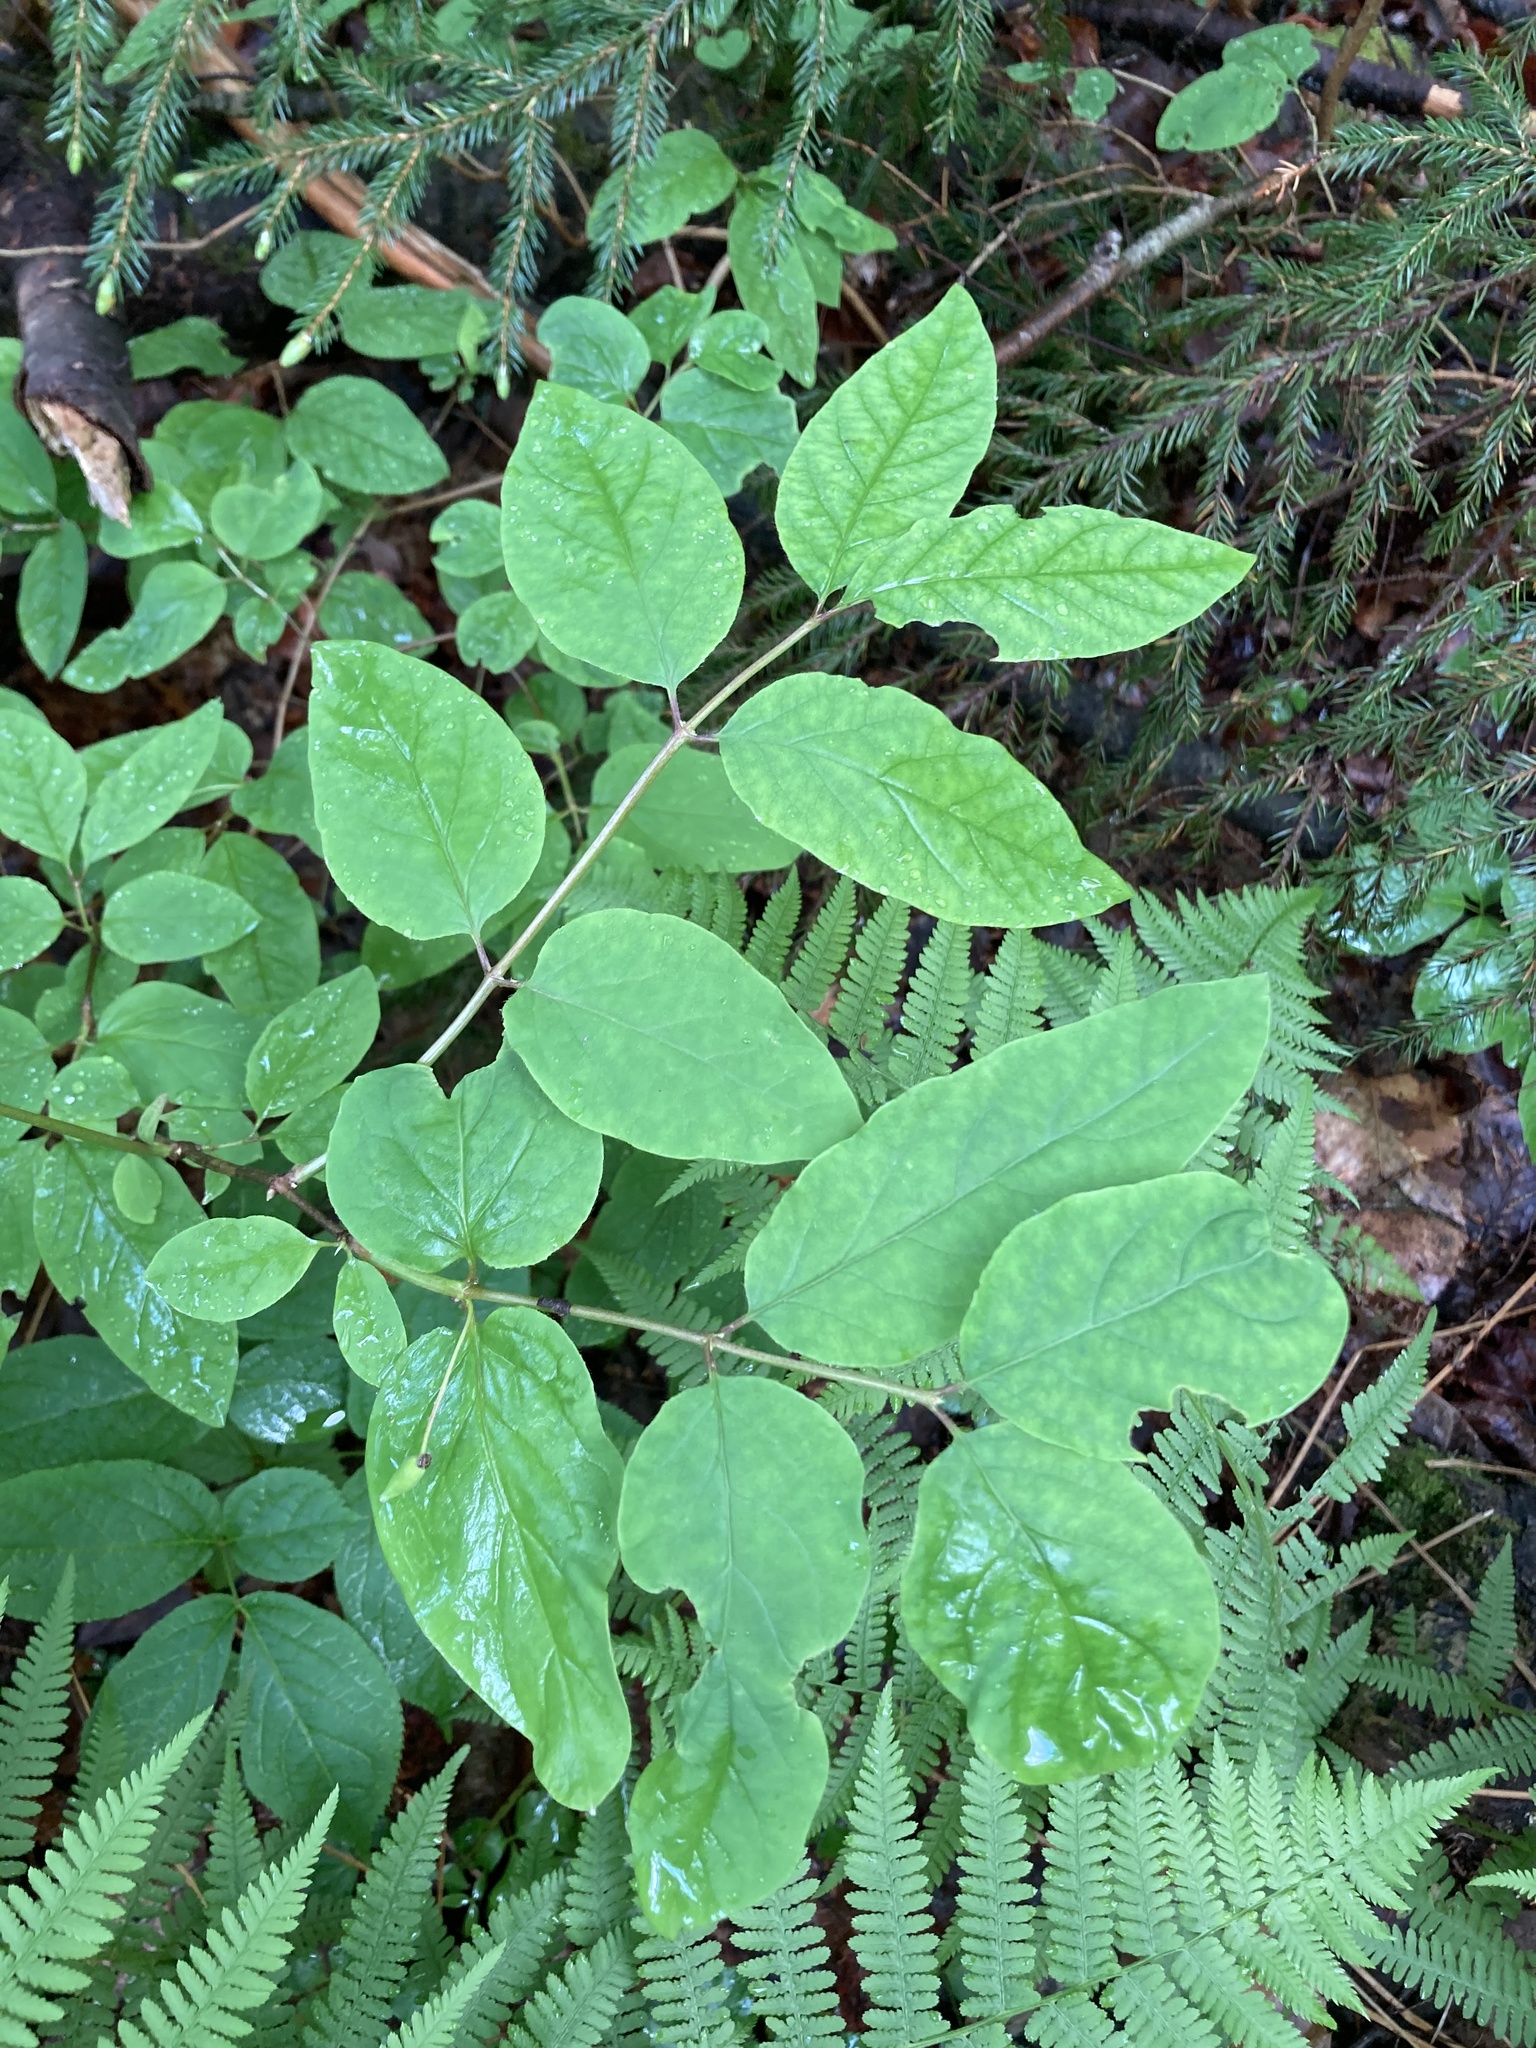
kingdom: Plantae
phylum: Tracheophyta
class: Magnoliopsida
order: Dipsacales
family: Caprifoliaceae
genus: Lonicera
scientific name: Lonicera canadensis
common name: American fly-honeysuckle
